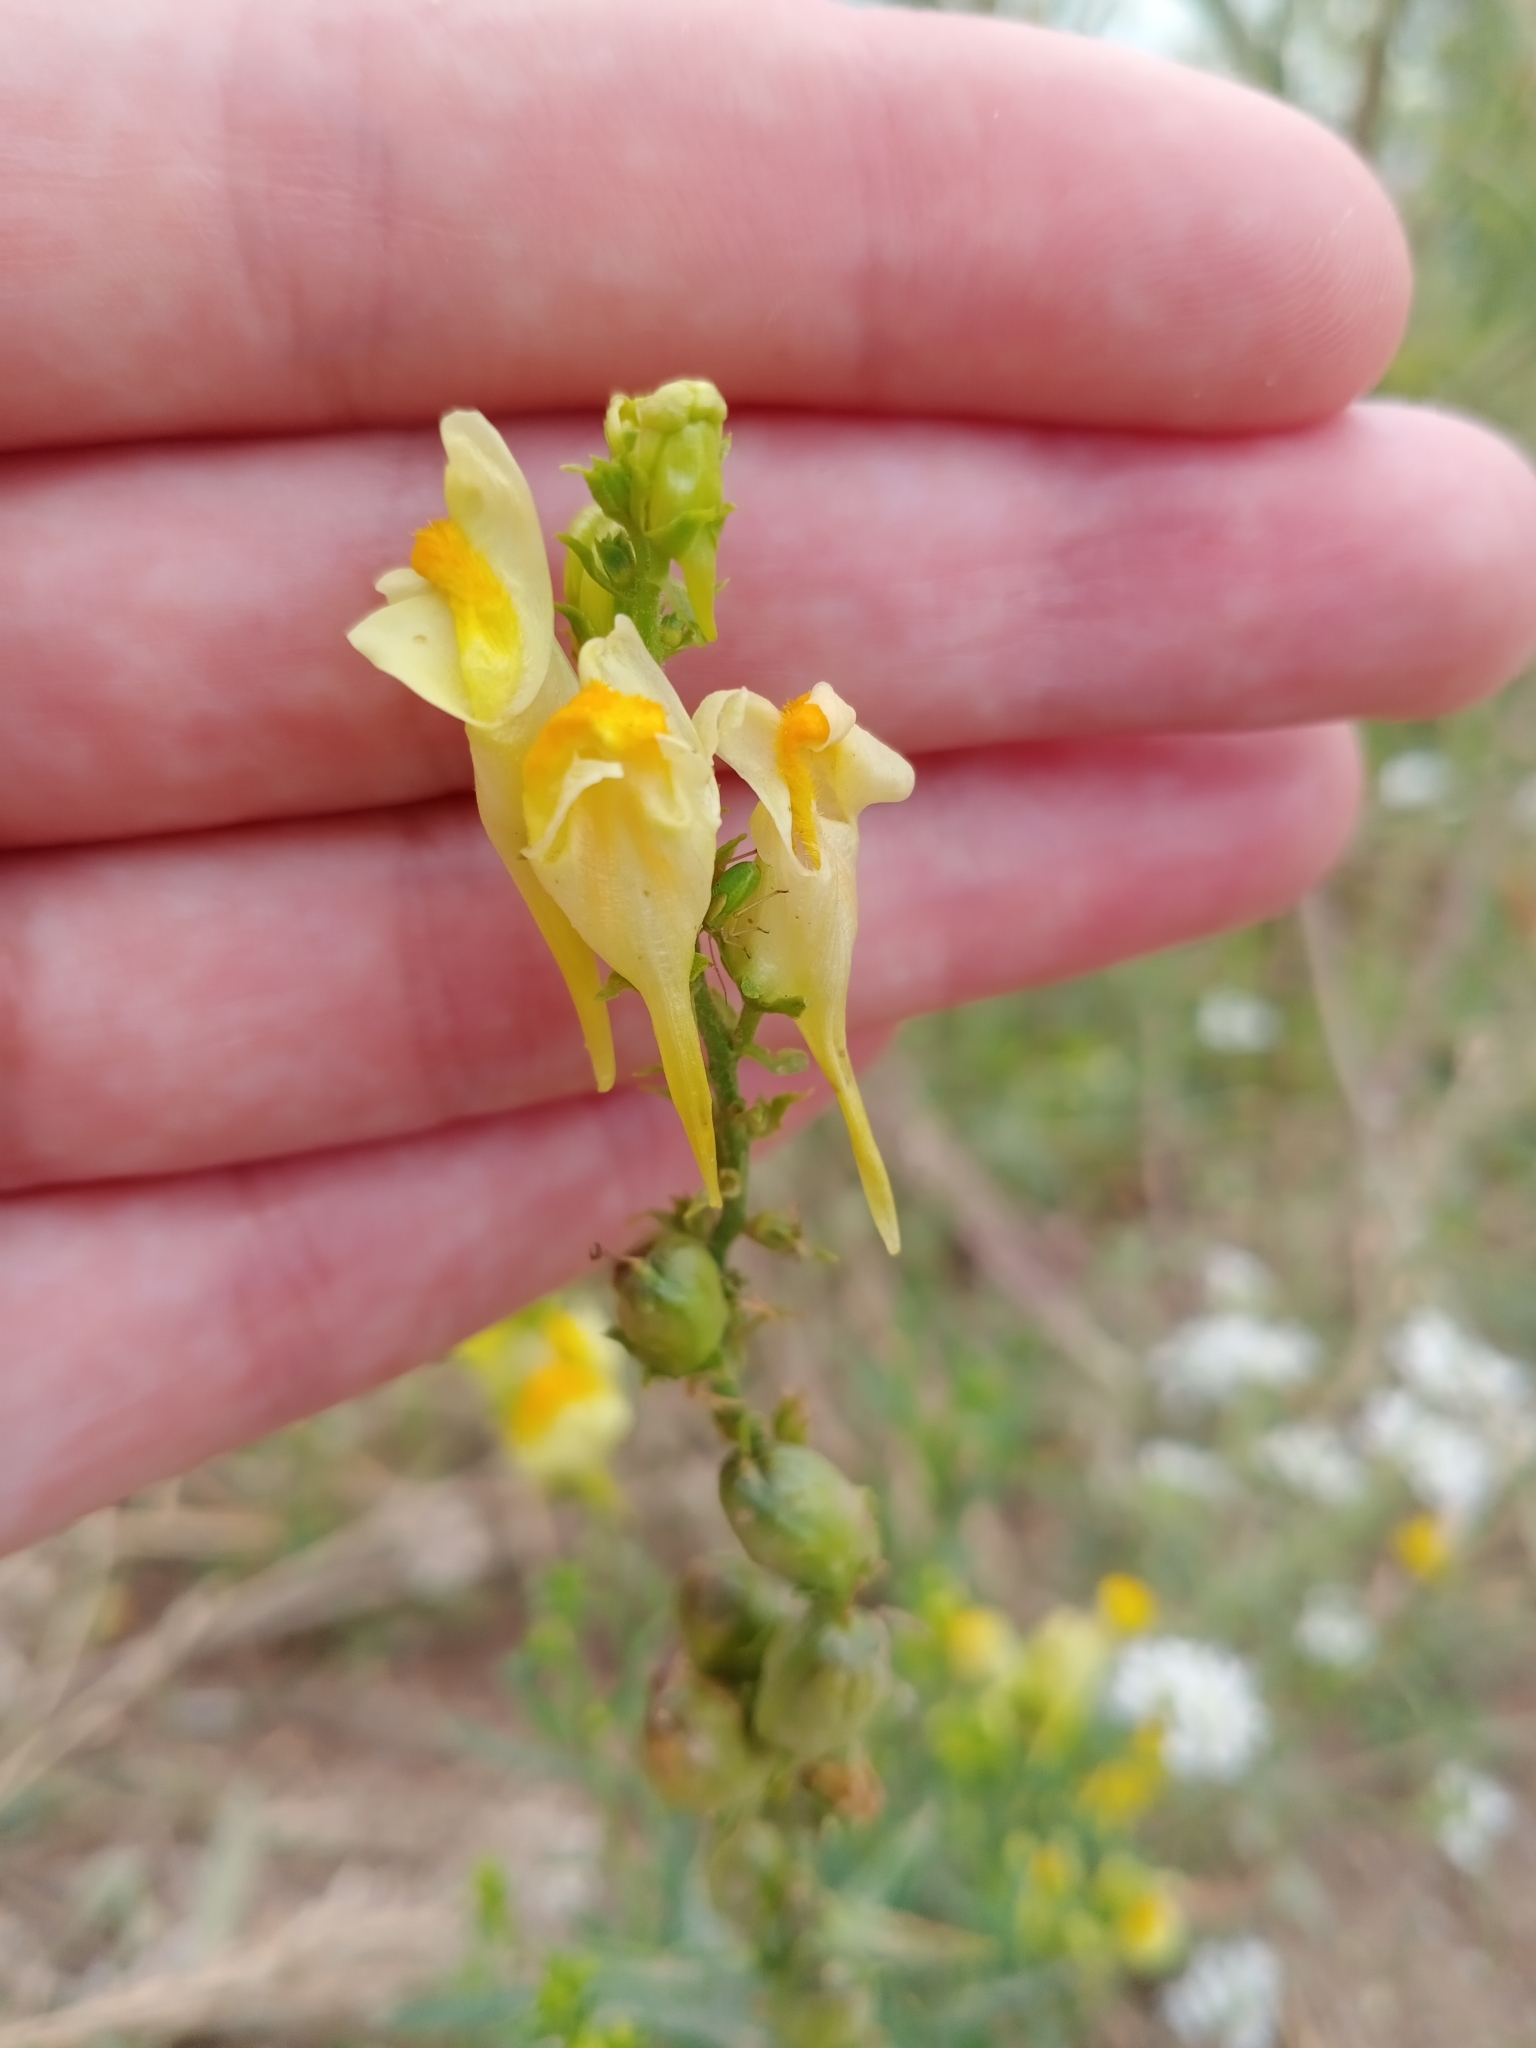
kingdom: Plantae
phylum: Tracheophyta
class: Magnoliopsida
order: Lamiales
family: Plantaginaceae
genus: Linaria
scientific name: Linaria vulgaris
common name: Butter and eggs
